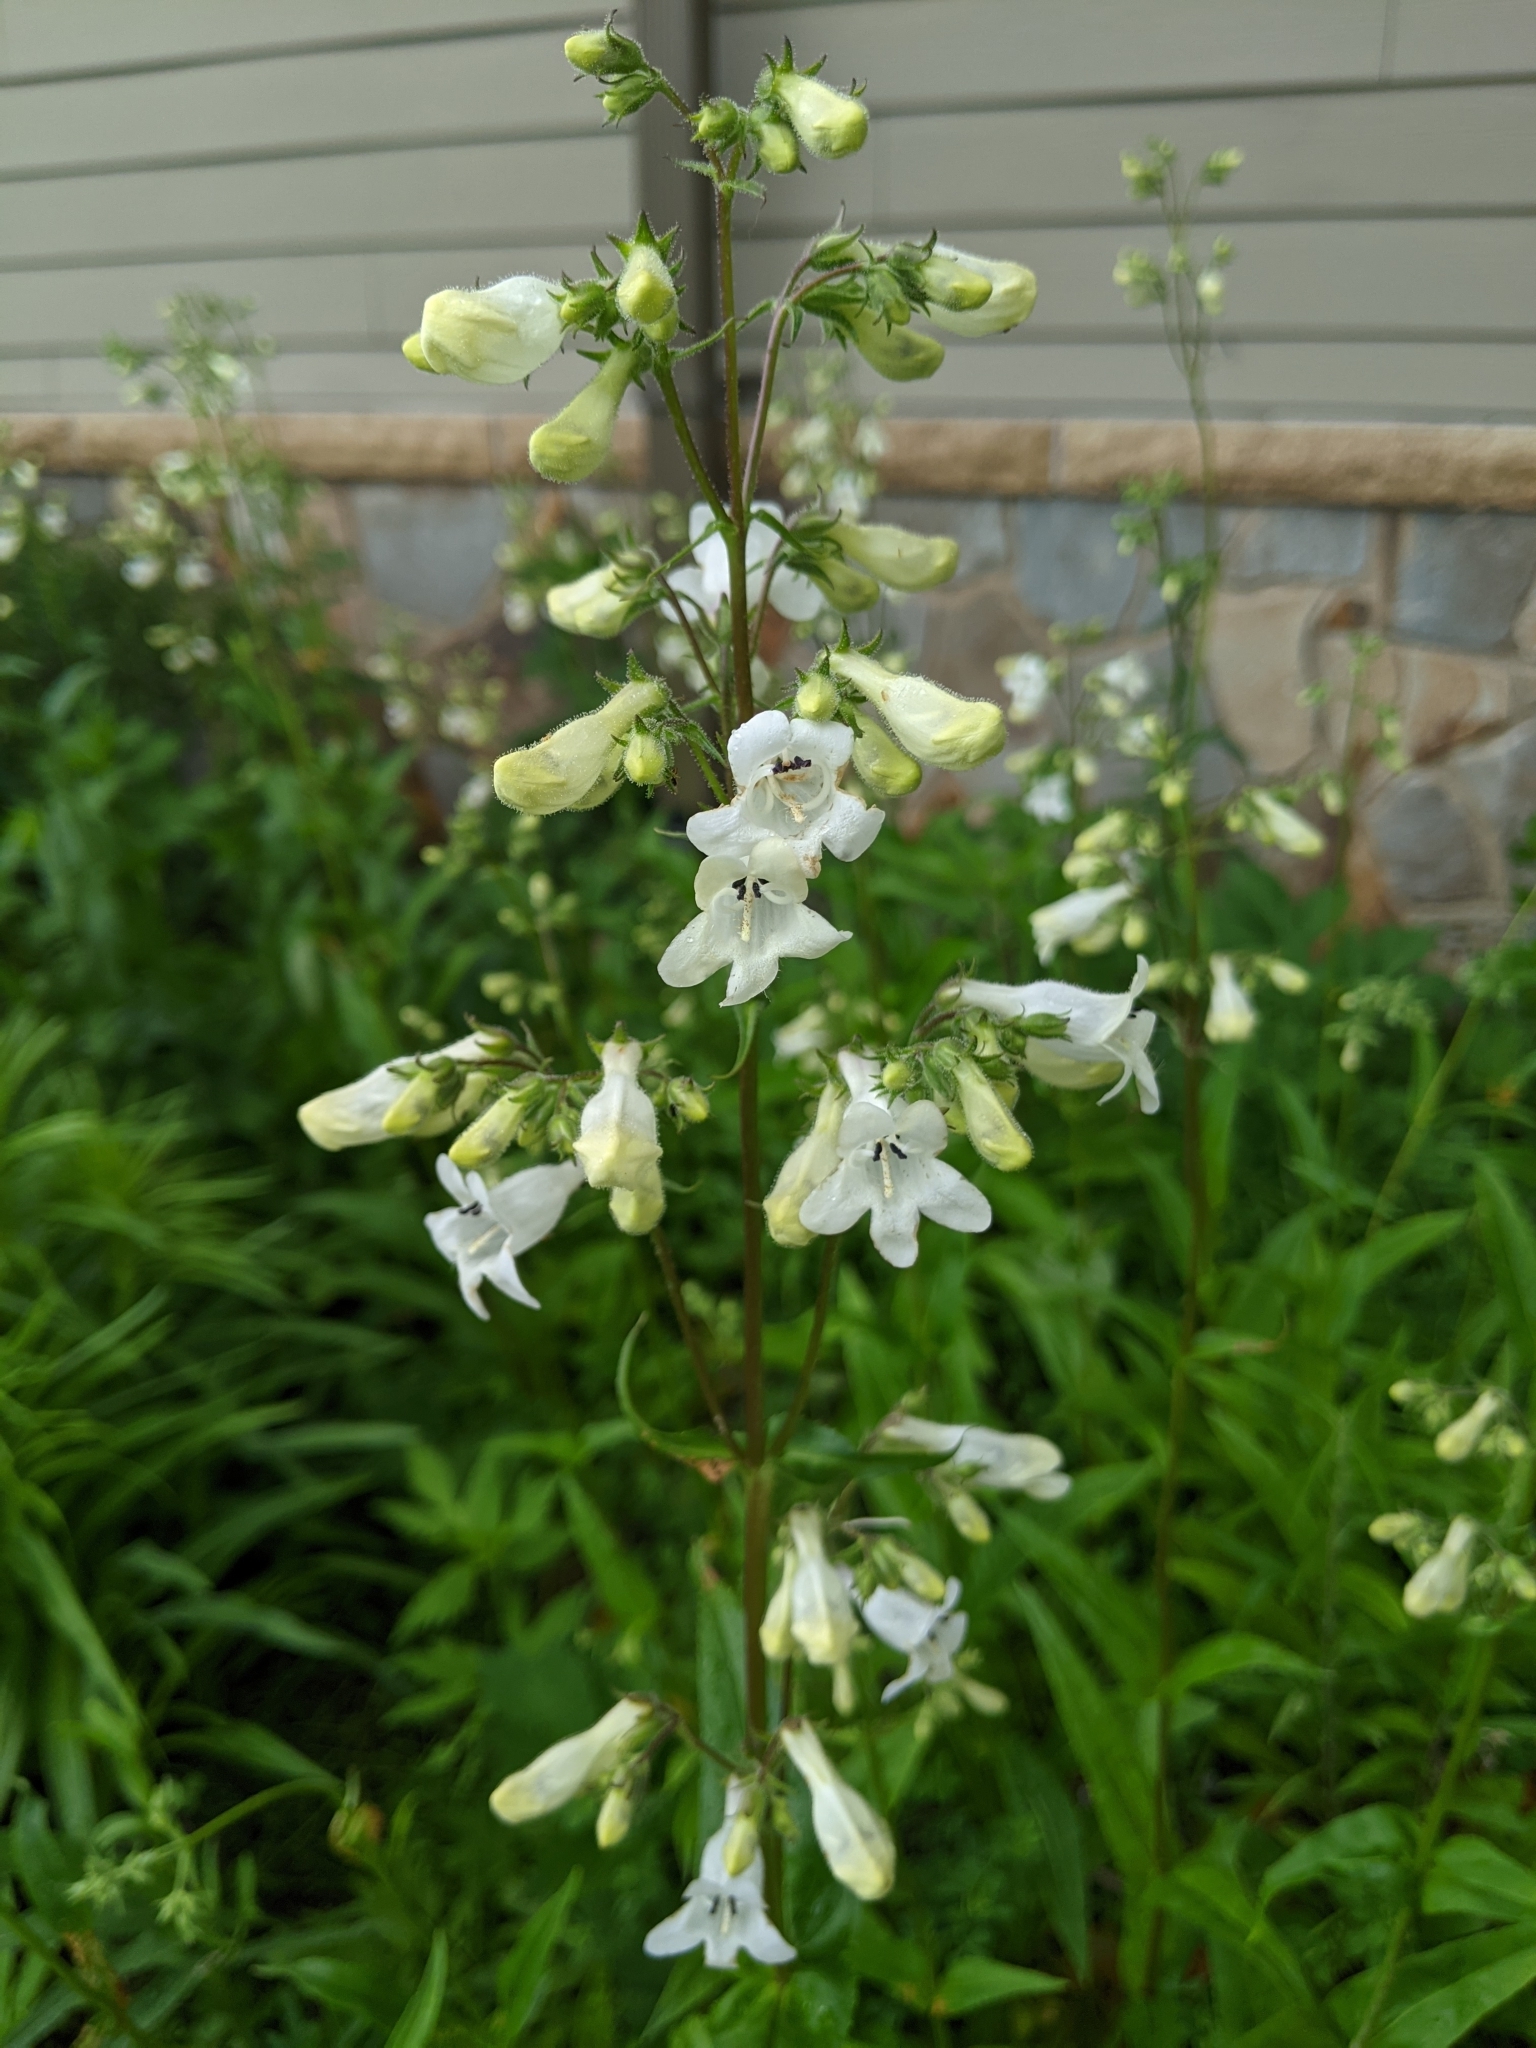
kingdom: Plantae
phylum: Tracheophyta
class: Magnoliopsida
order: Lamiales
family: Plantaginaceae
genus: Penstemon
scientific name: Penstemon digitalis
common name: Foxglove beardtongue
